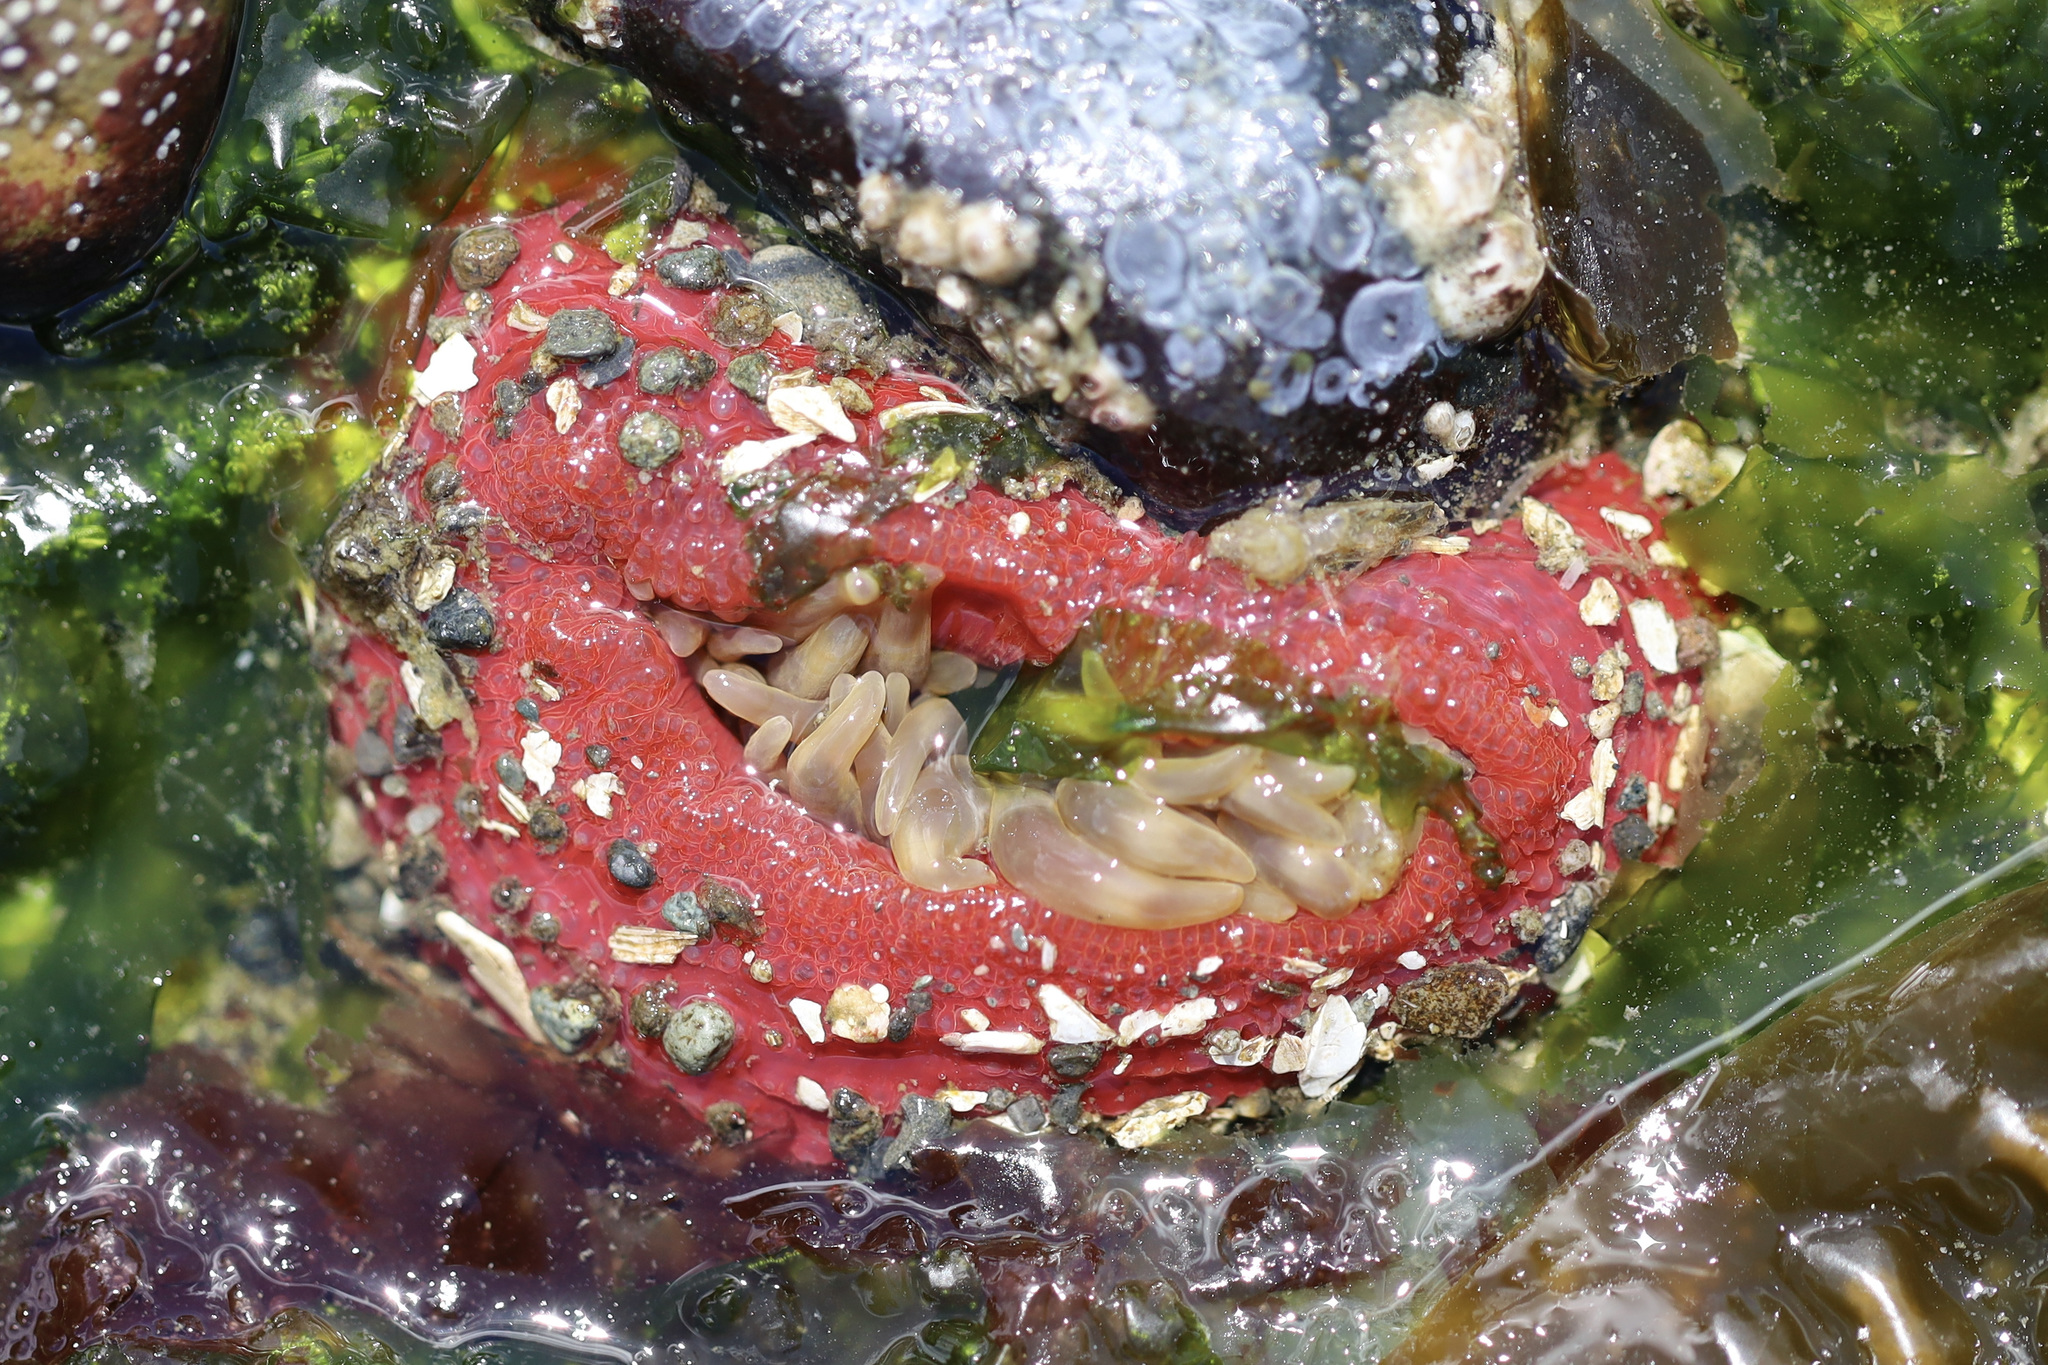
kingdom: Animalia
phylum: Cnidaria
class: Anthozoa
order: Actiniaria
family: Actiniidae
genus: Urticina
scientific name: Urticina clandestina
